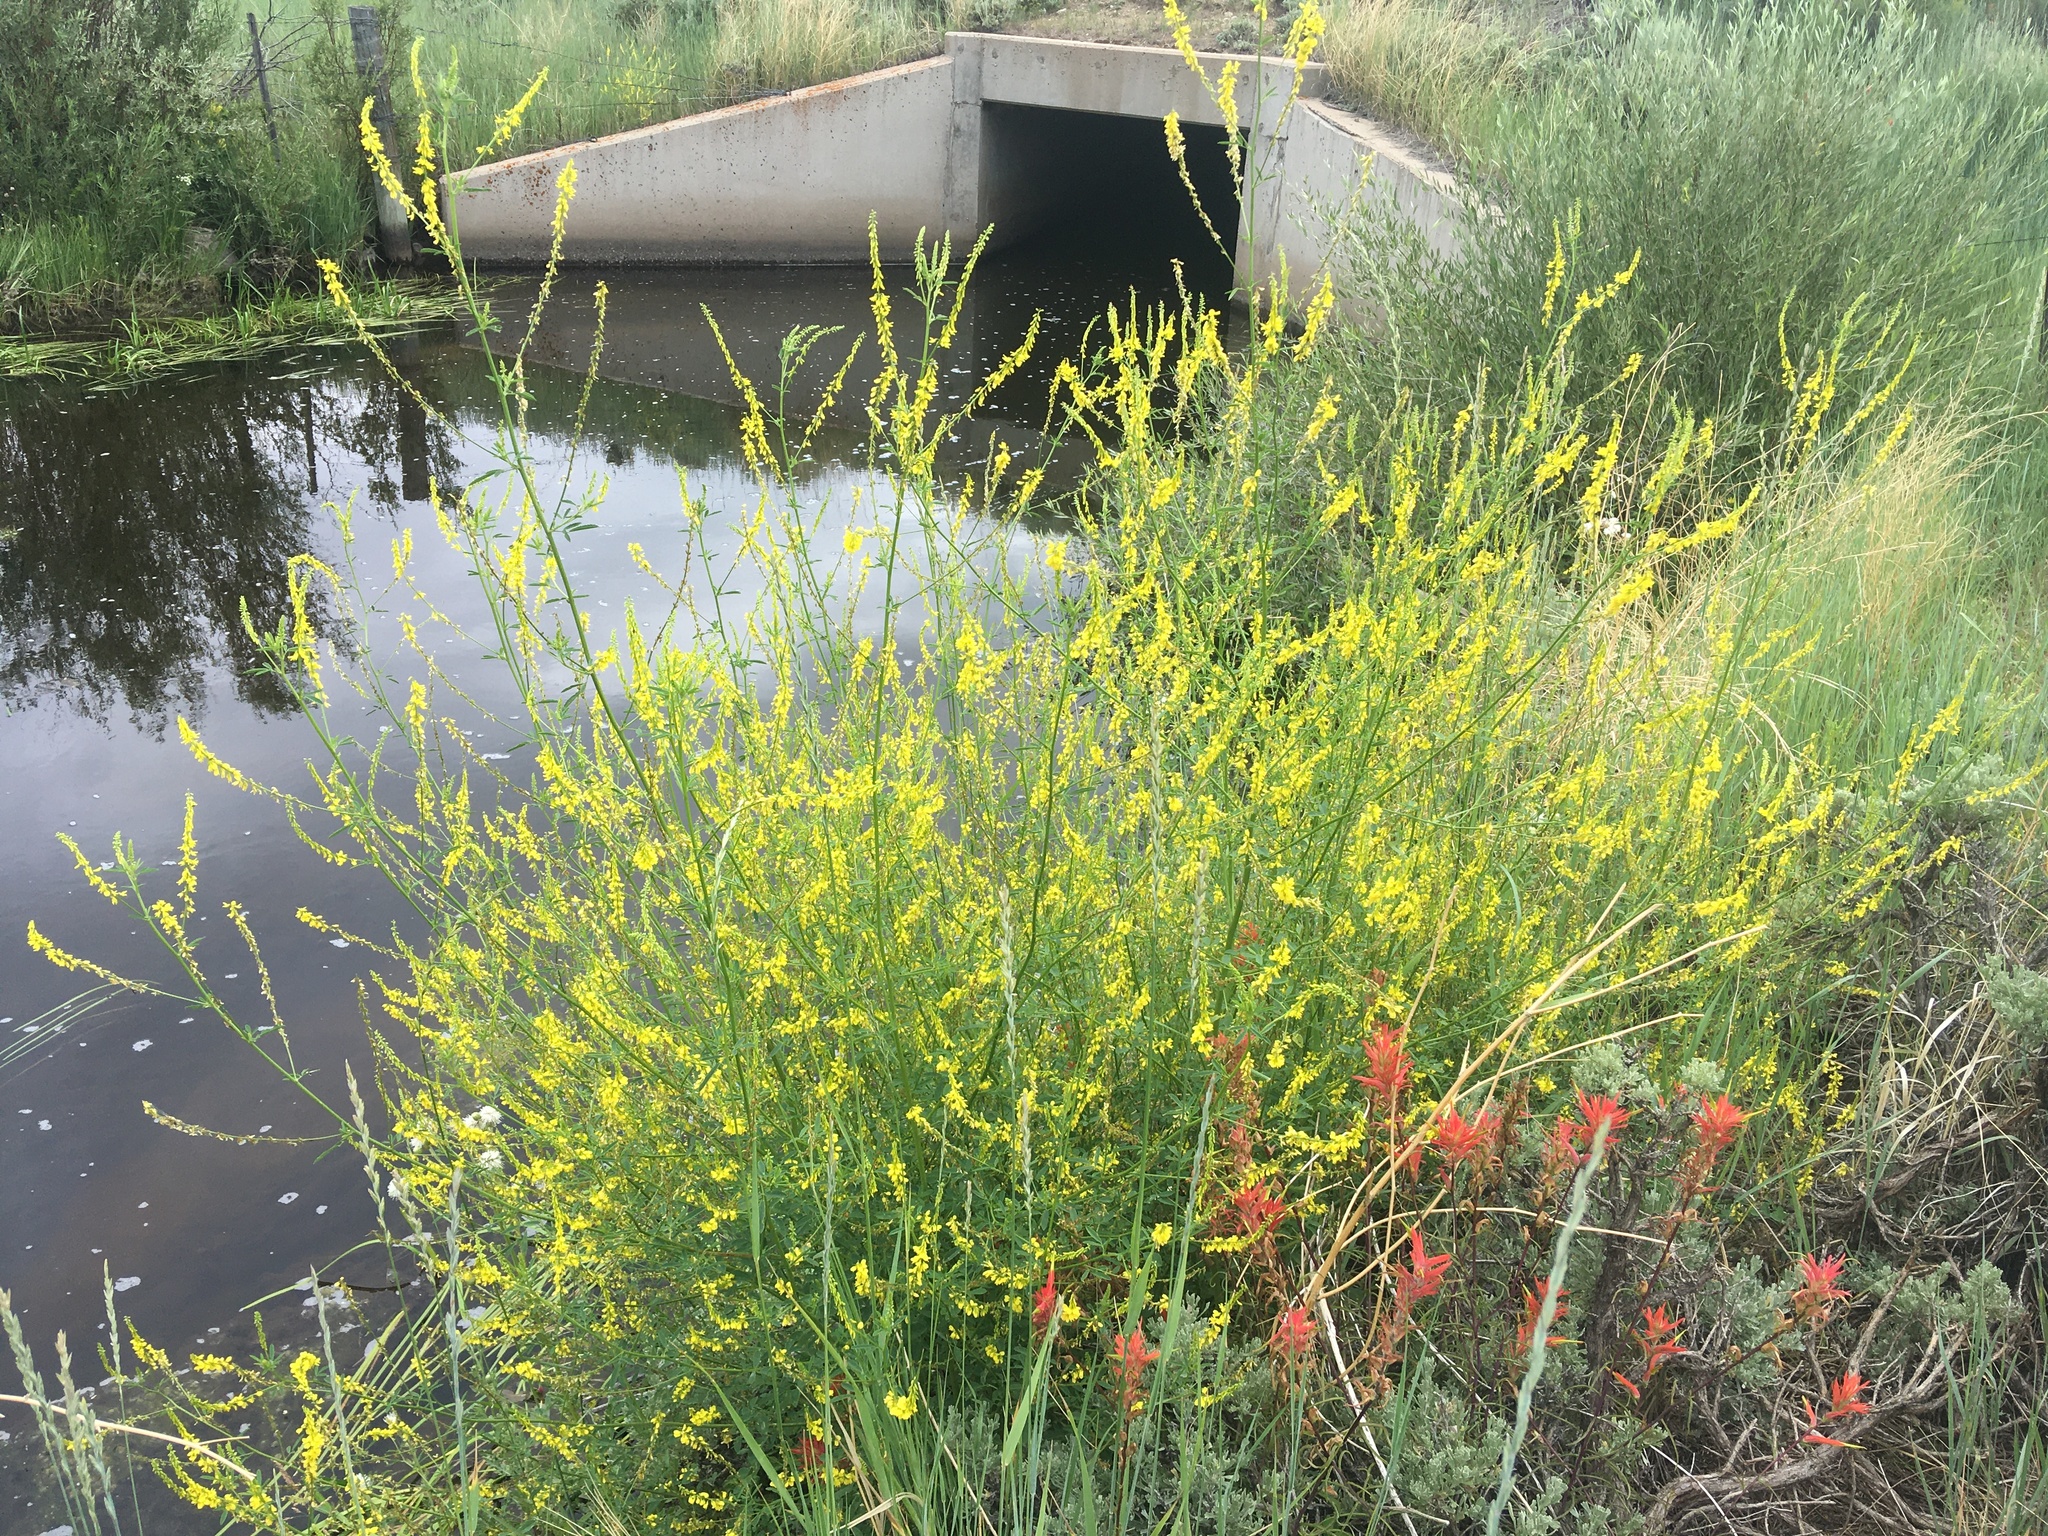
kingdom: Plantae
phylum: Tracheophyta
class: Magnoliopsida
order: Fabales
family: Fabaceae
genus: Melilotus
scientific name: Melilotus officinalis
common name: Sweetclover
